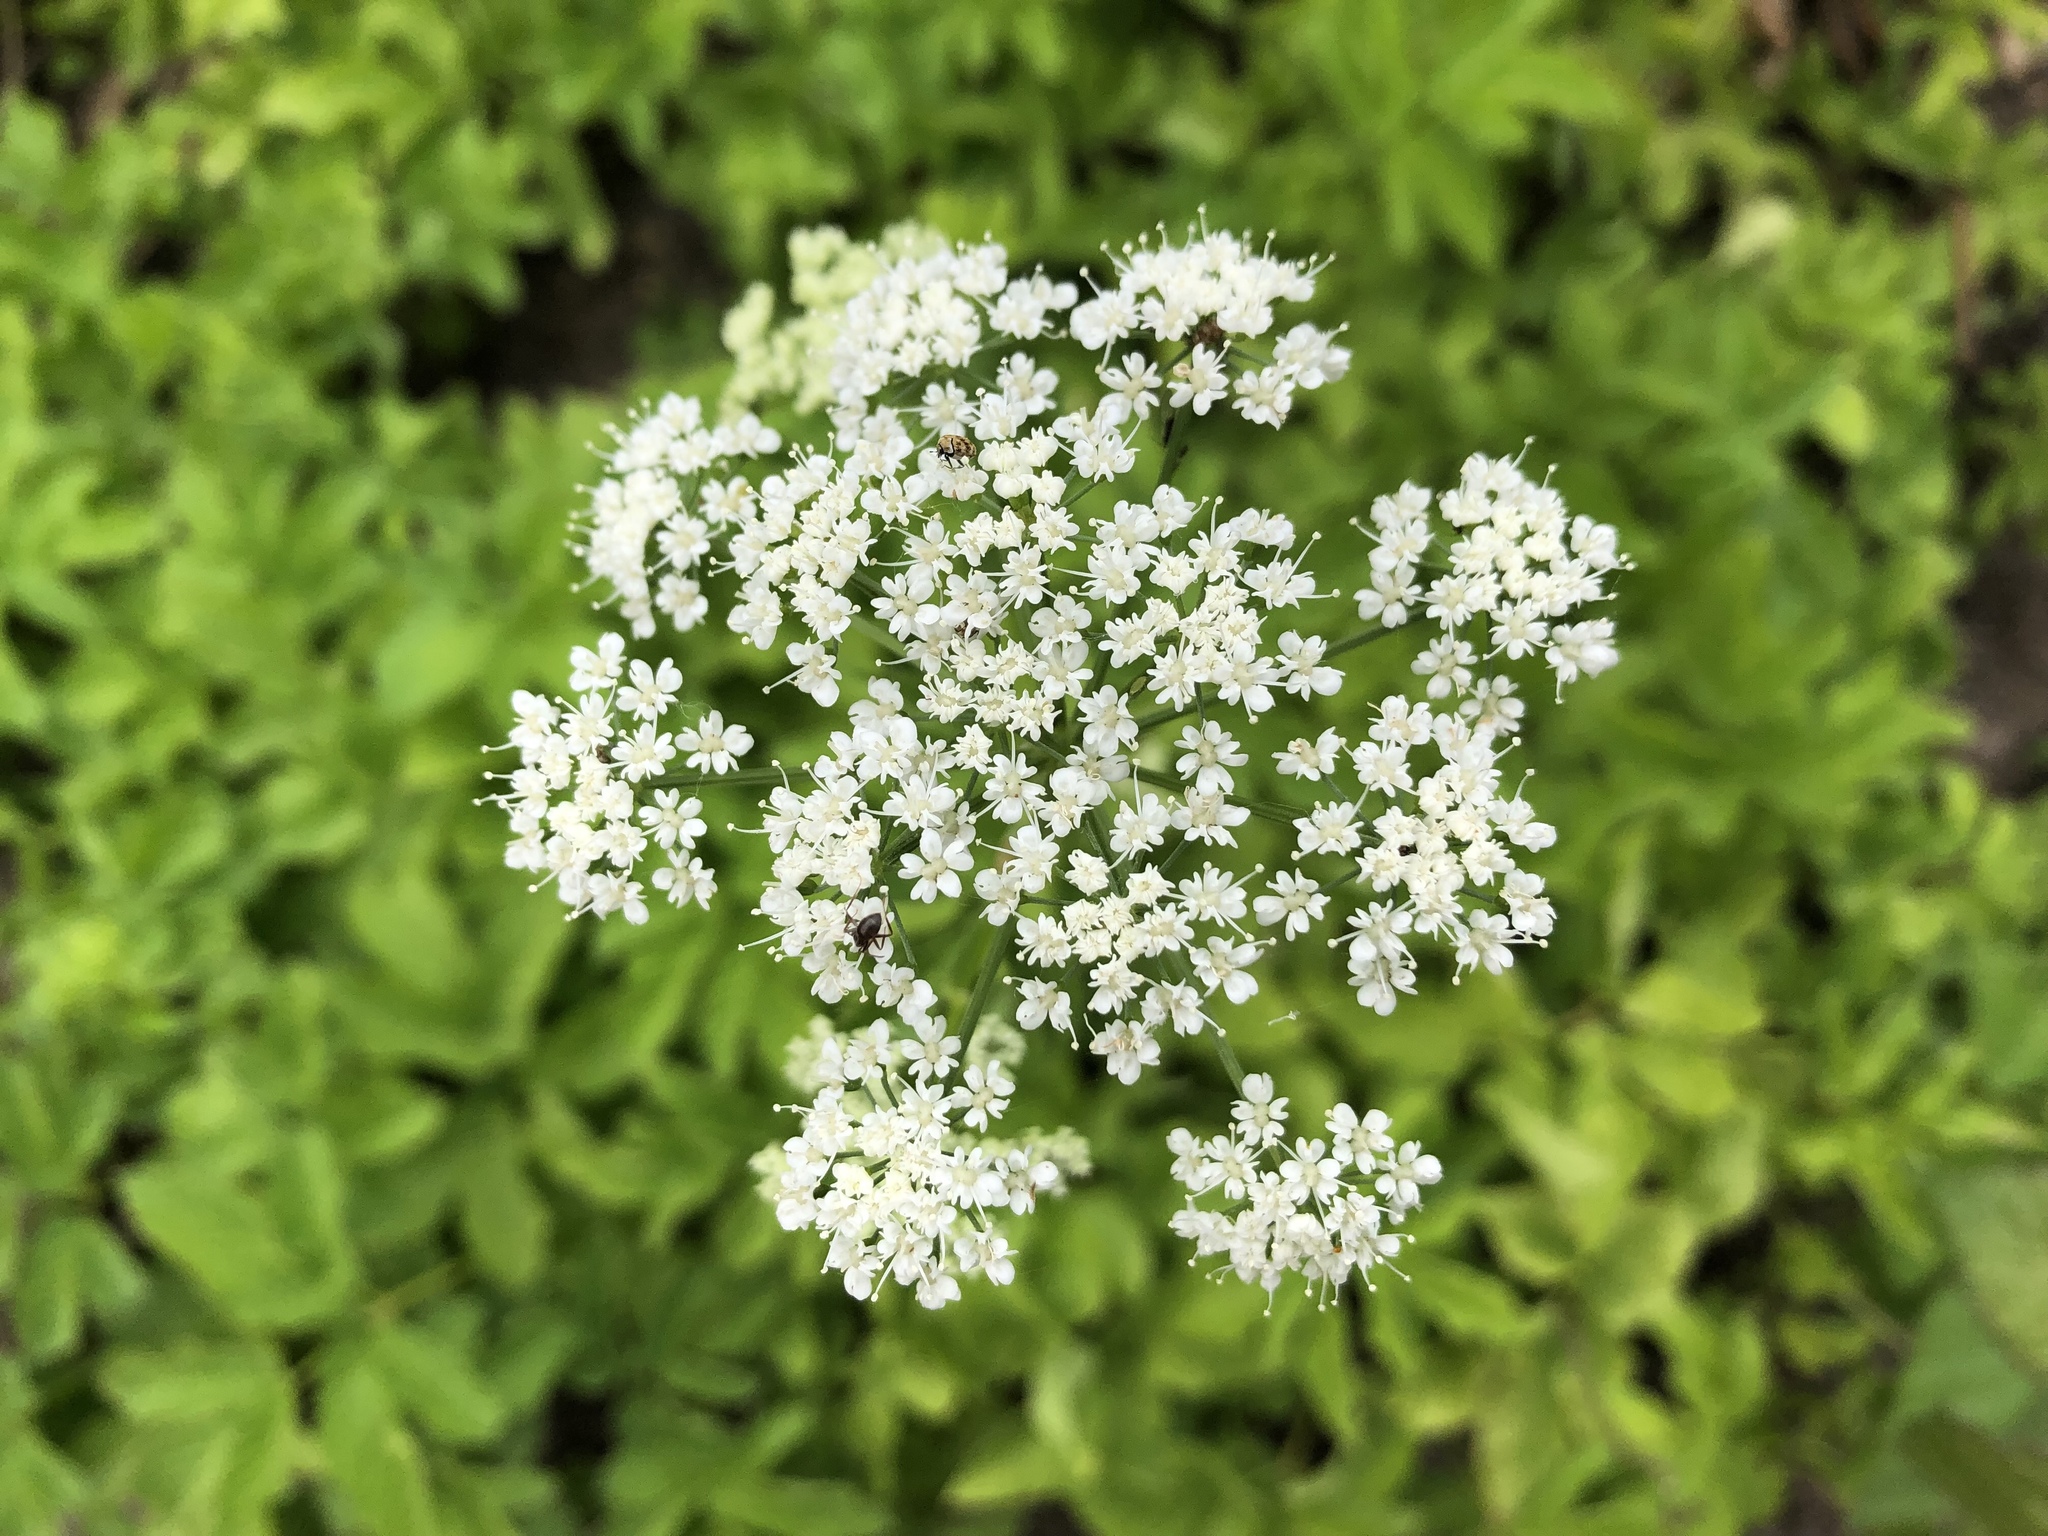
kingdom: Plantae
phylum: Tracheophyta
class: Magnoliopsida
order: Apiales
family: Apiaceae
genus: Aegopodium
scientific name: Aegopodium podagraria
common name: Ground-elder
